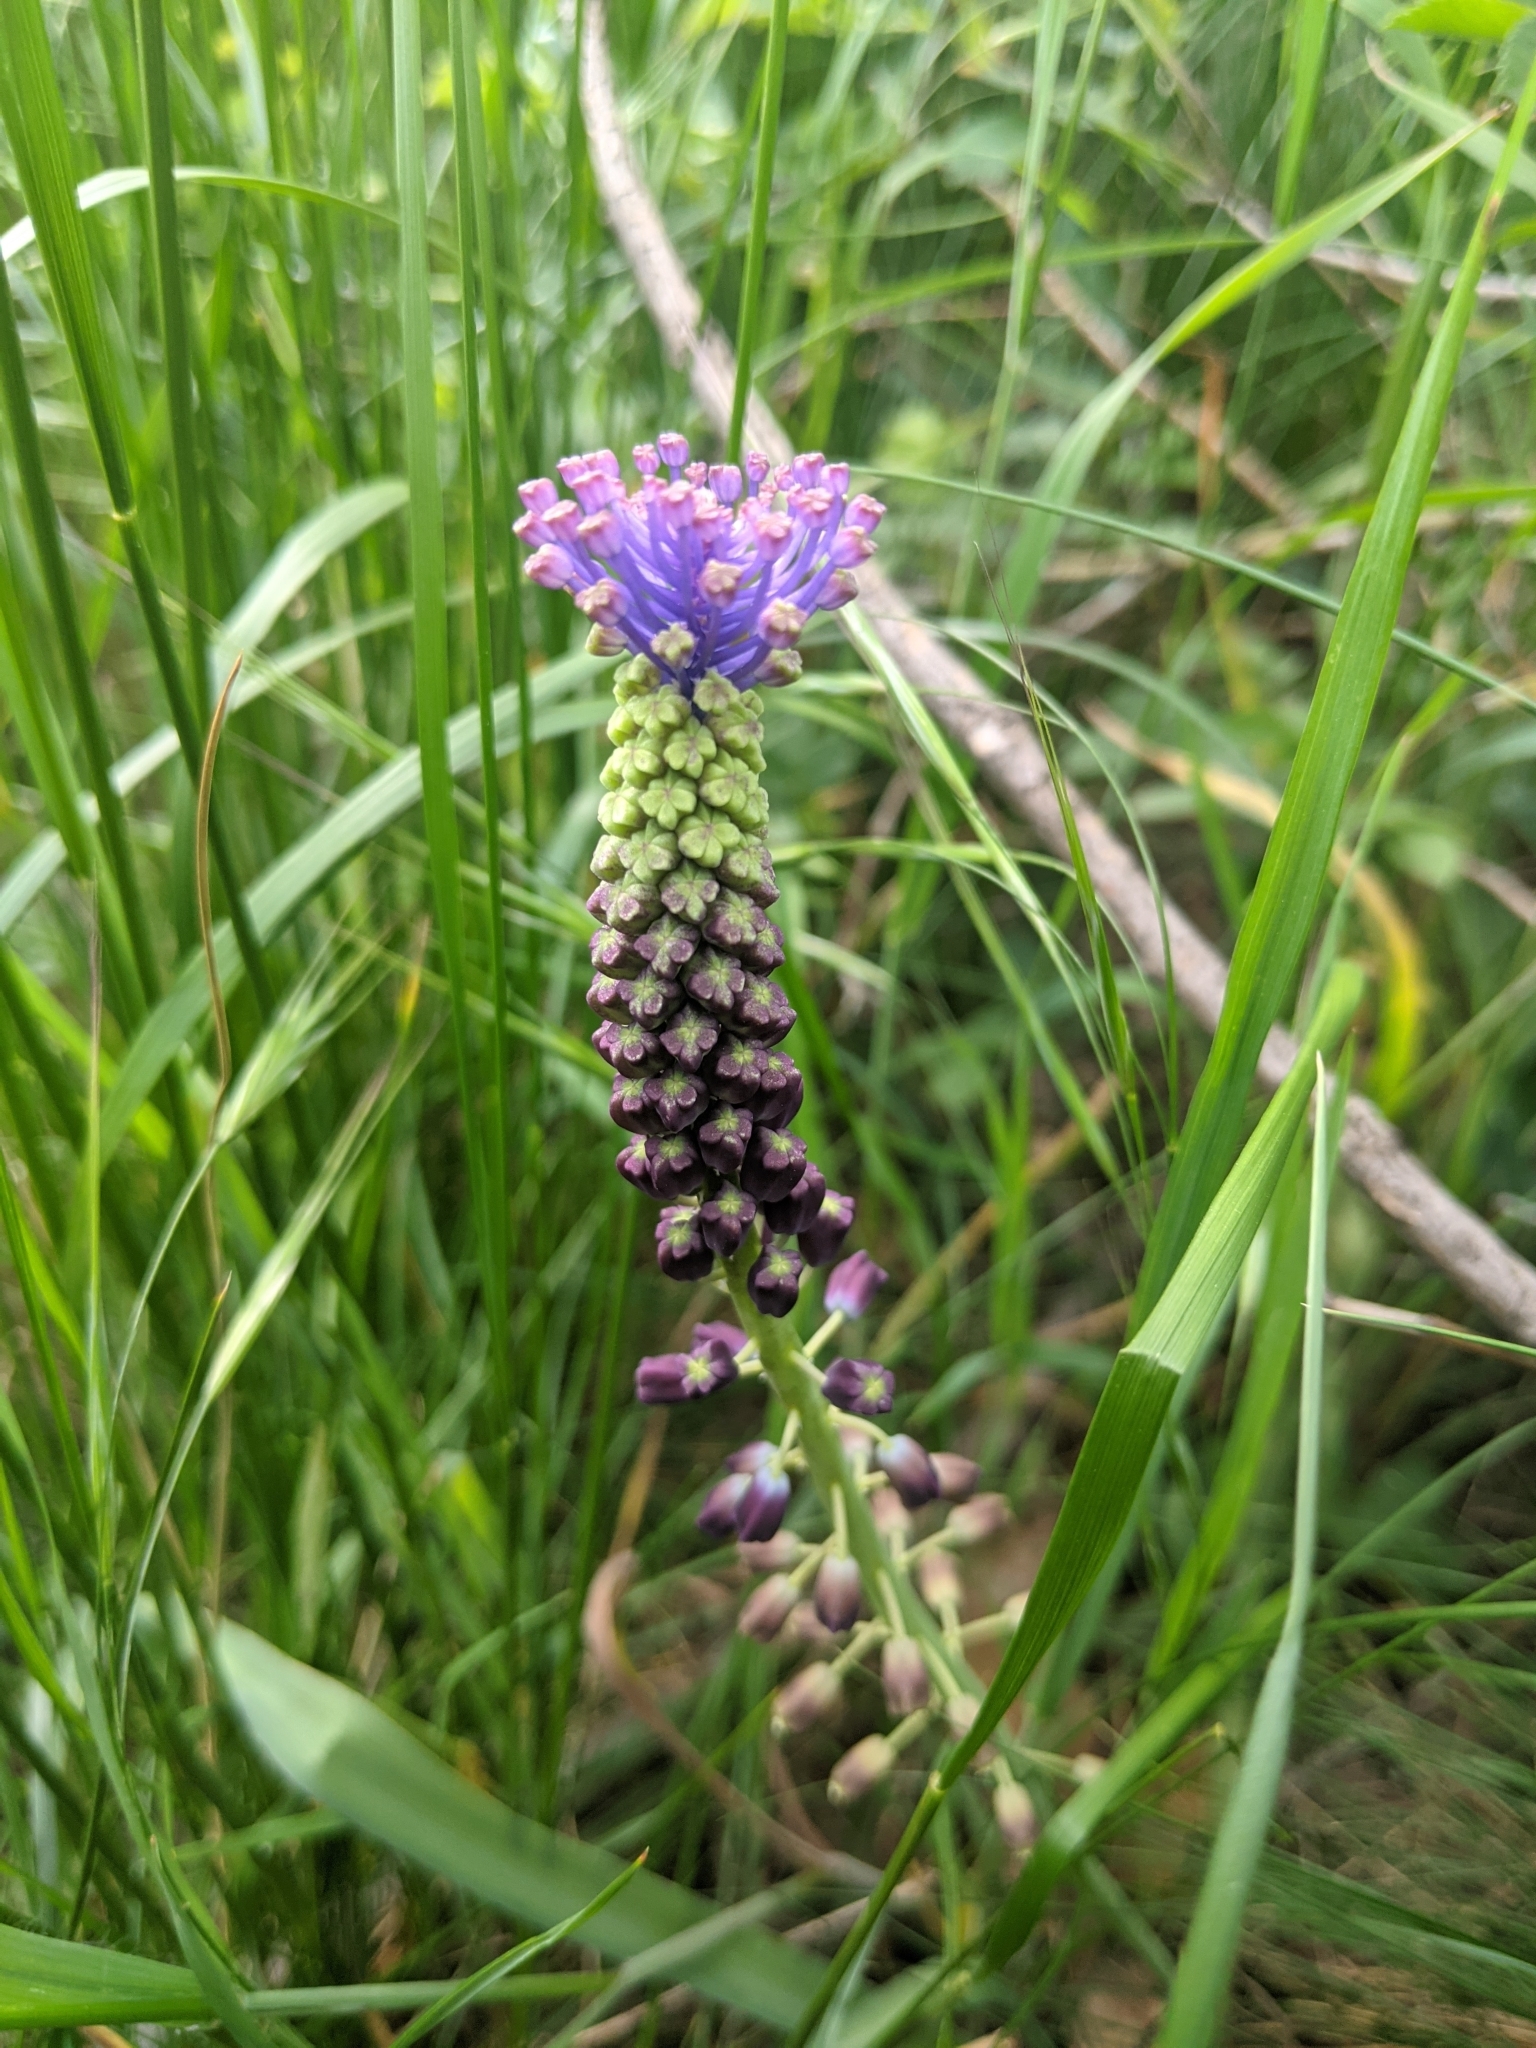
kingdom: Plantae
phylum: Tracheophyta
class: Liliopsida
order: Asparagales
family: Asparagaceae
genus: Muscari
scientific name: Muscari comosum
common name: Tassel hyacinth
